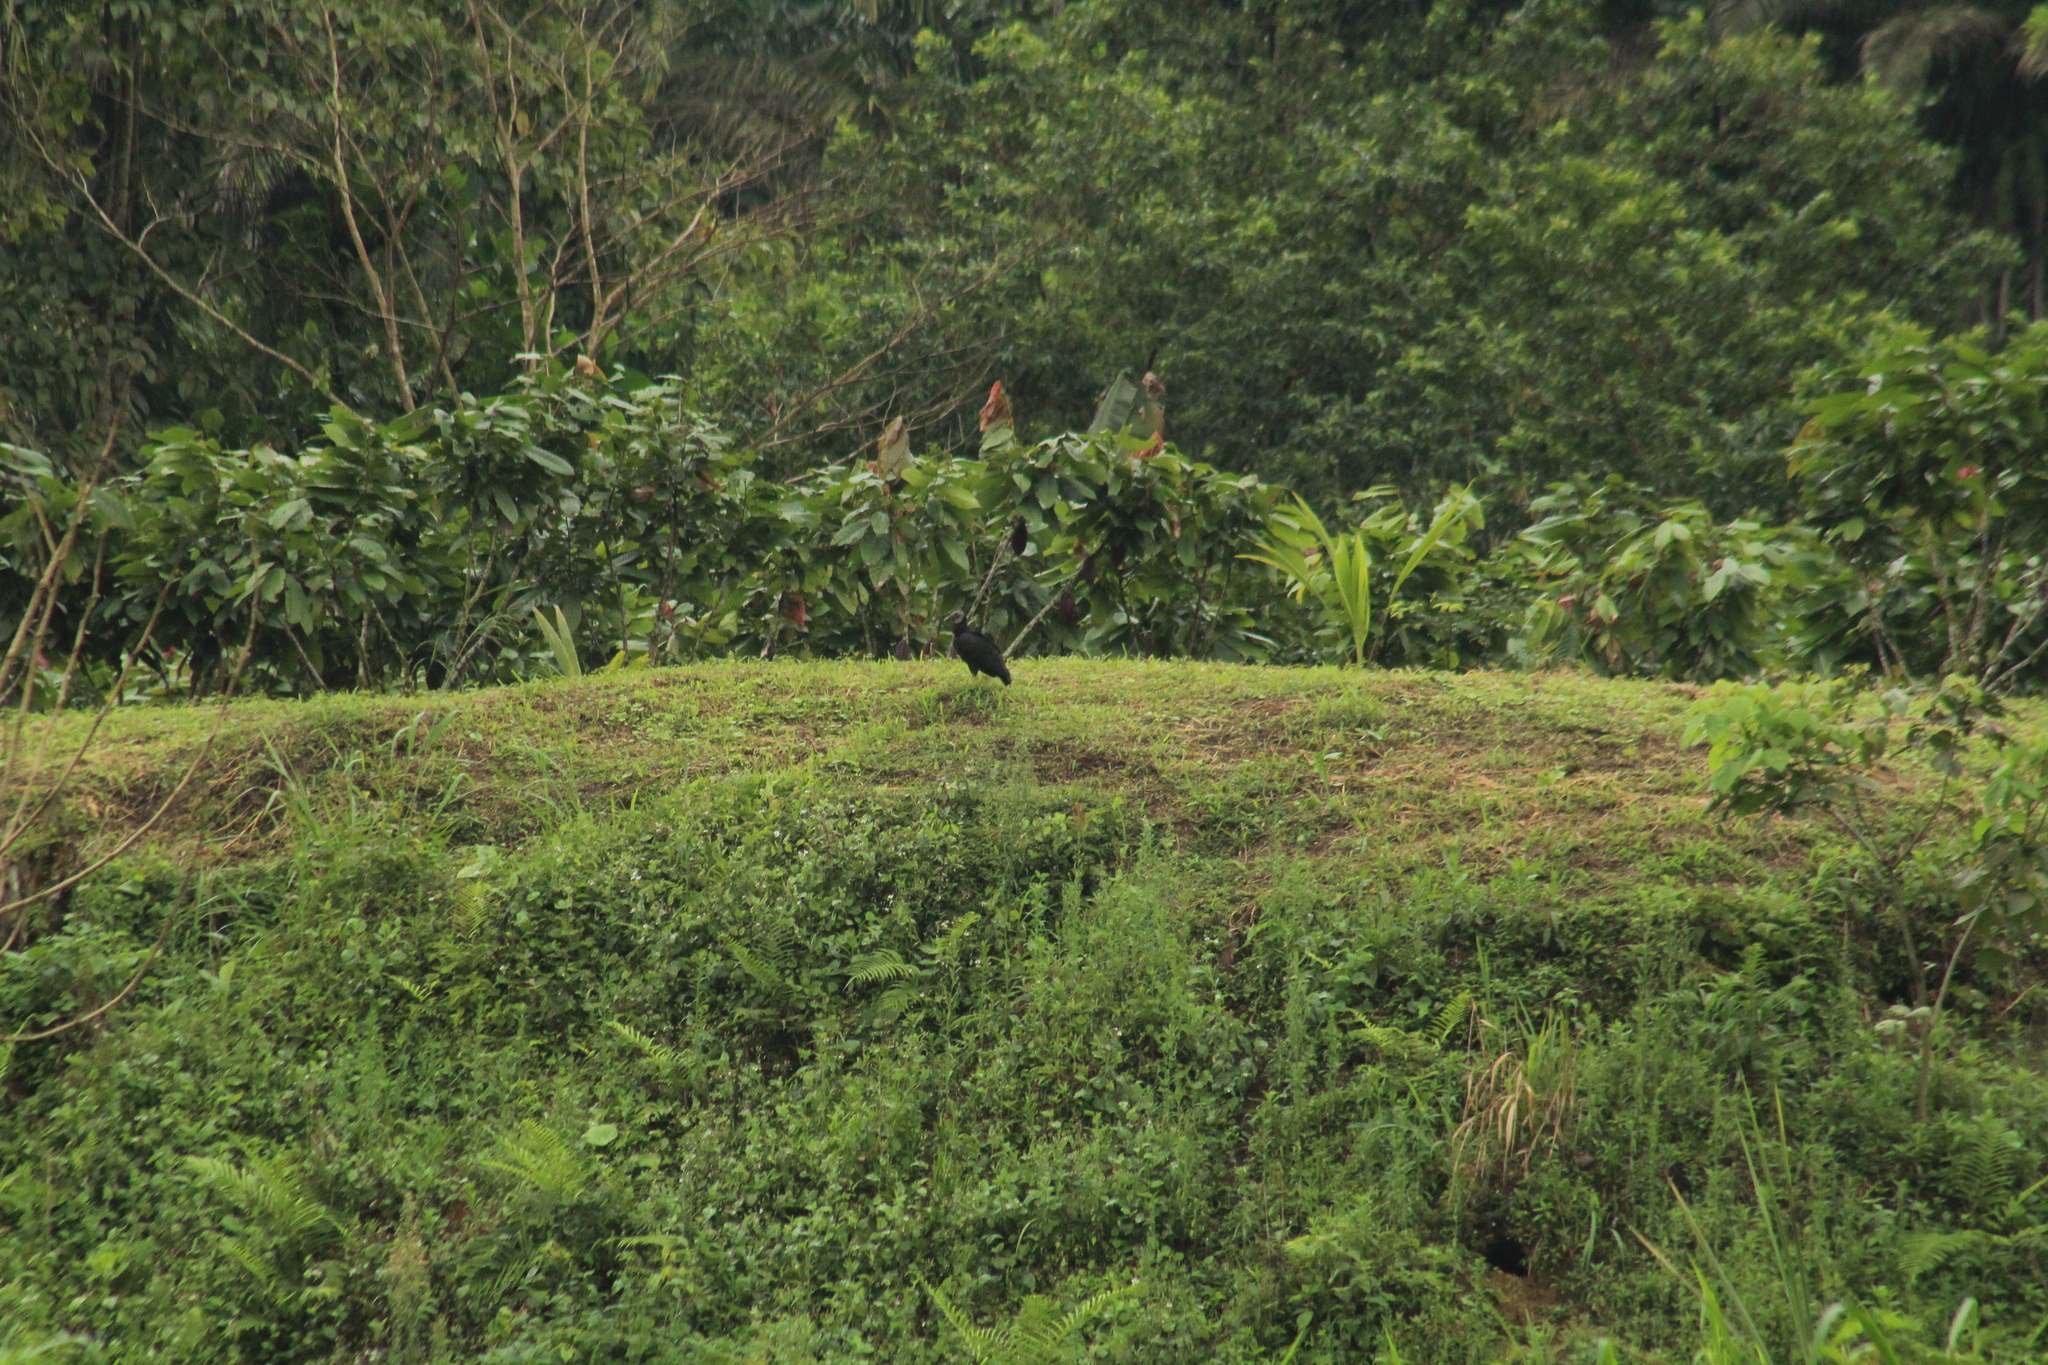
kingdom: Animalia
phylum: Chordata
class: Aves
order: Accipitriformes
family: Cathartidae
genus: Coragyps
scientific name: Coragyps atratus
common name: Black vulture
